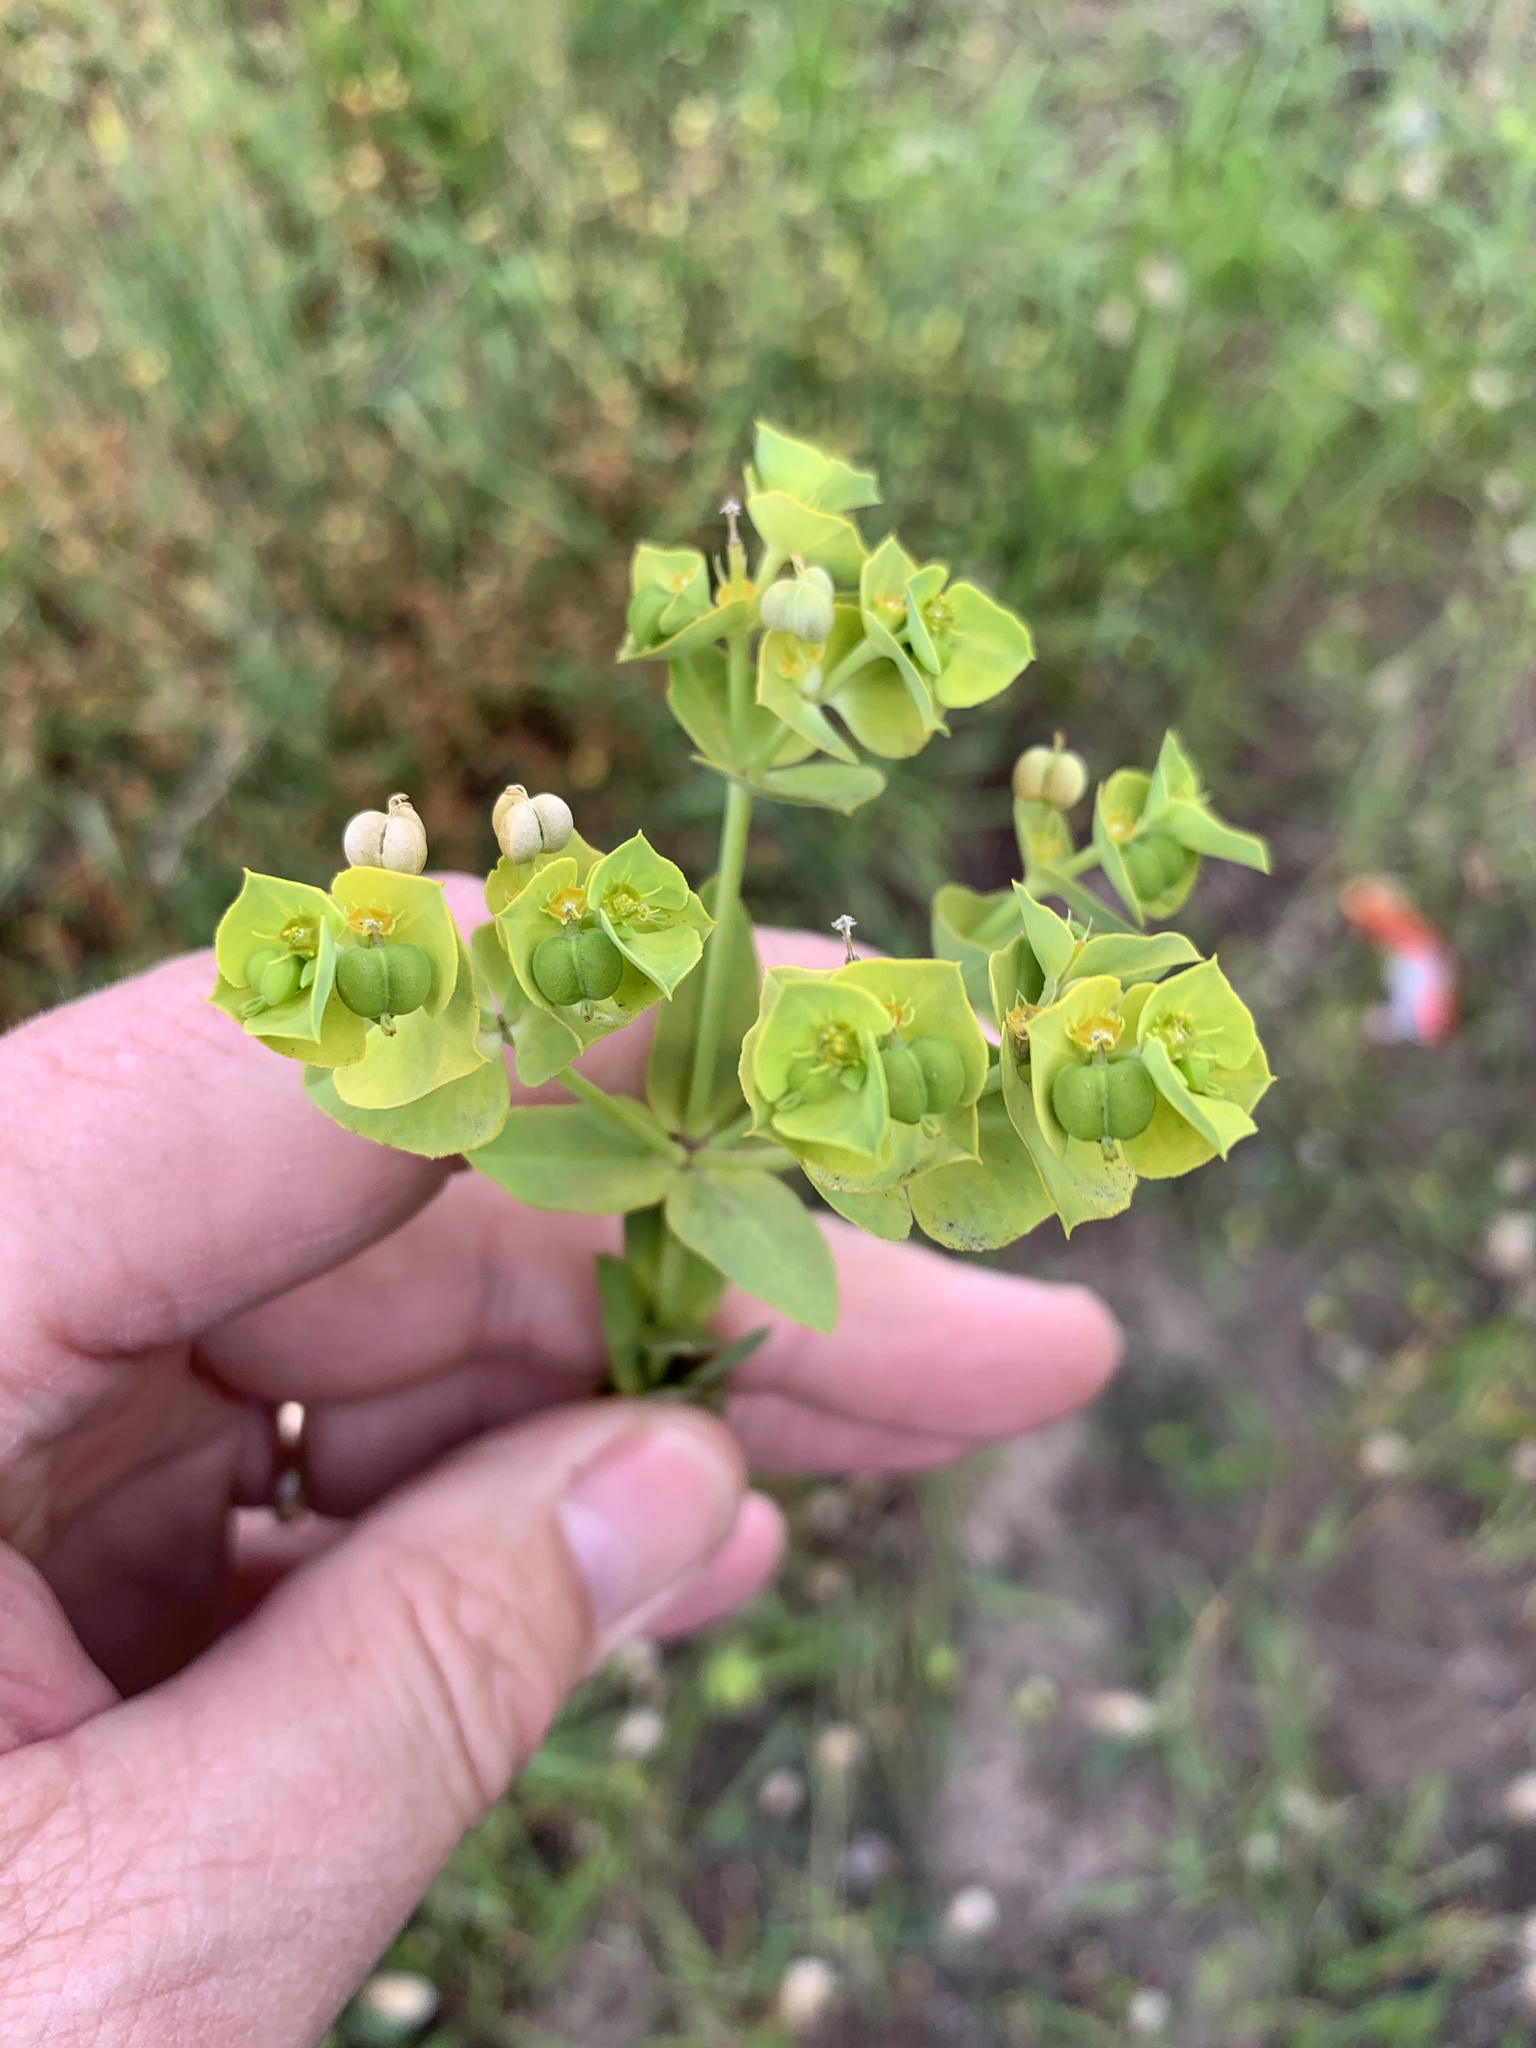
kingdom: Plantae
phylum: Tracheophyta
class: Magnoliopsida
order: Malpighiales
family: Euphorbiaceae
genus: Euphorbia
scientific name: Euphorbia terracina
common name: Geraldton carnation weed
